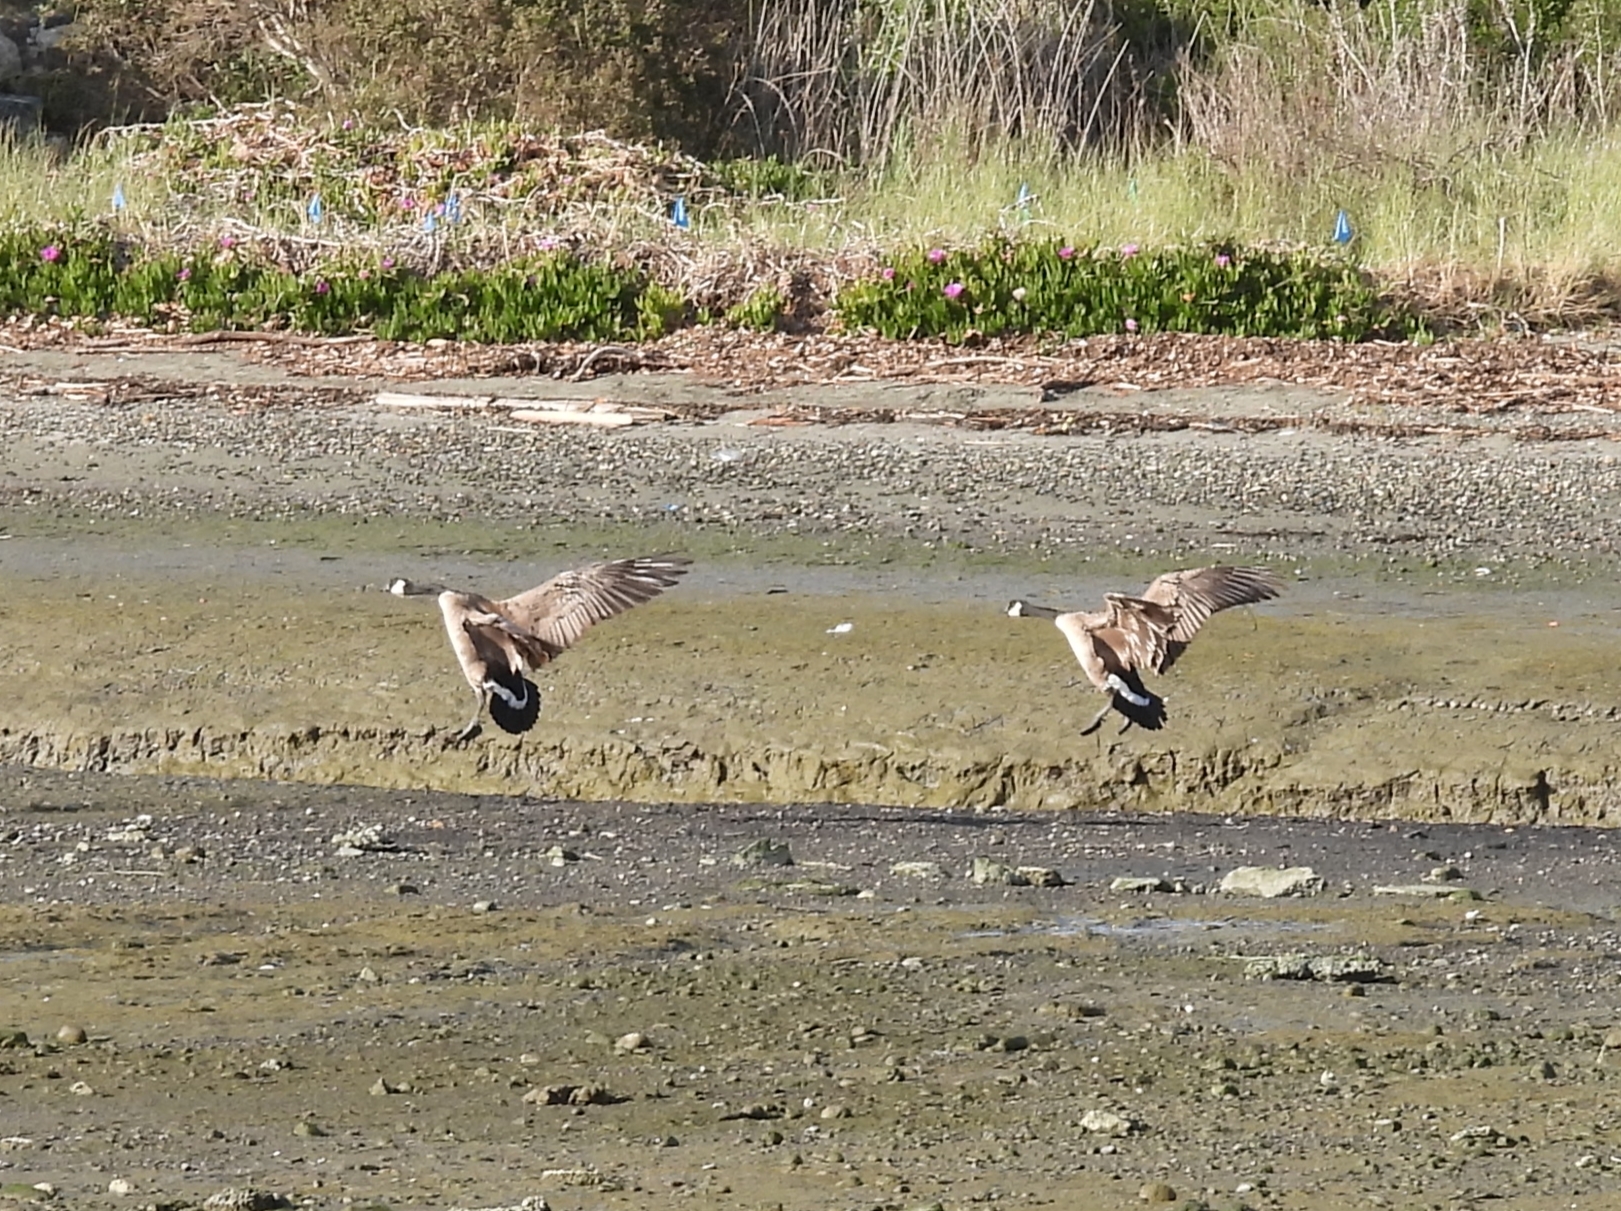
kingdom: Animalia
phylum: Chordata
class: Aves
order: Anseriformes
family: Anatidae
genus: Branta
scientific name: Branta canadensis
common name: Canada goose
